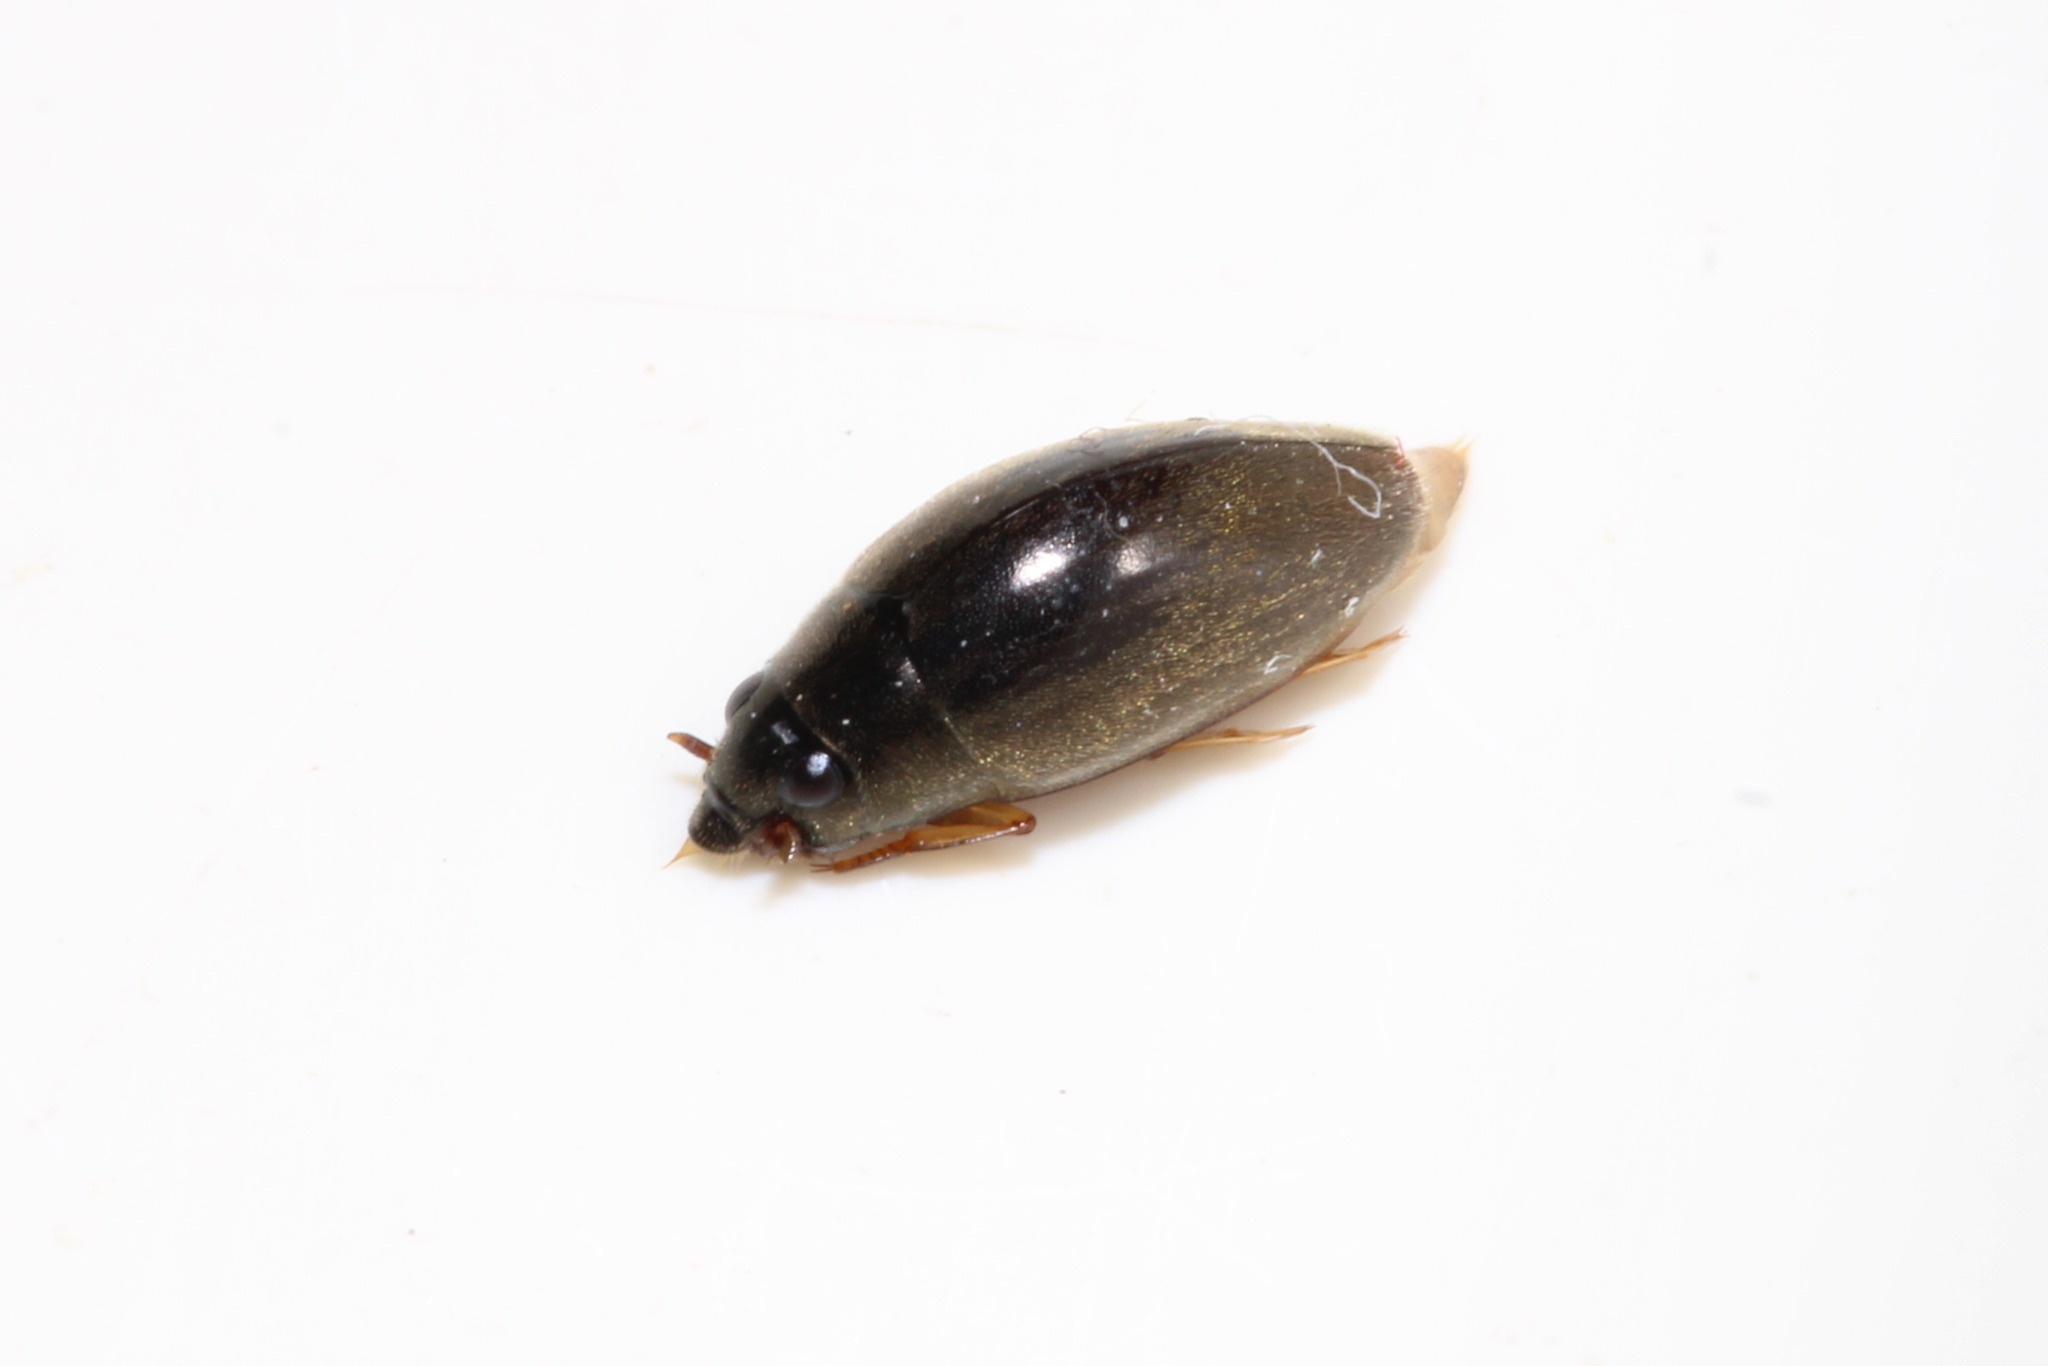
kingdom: Animalia
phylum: Arthropoda
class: Insecta
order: Coleoptera
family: Gyrinidae
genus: Orectochilus
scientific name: Orectochilus villosus
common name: Hairy whirligig beetle
